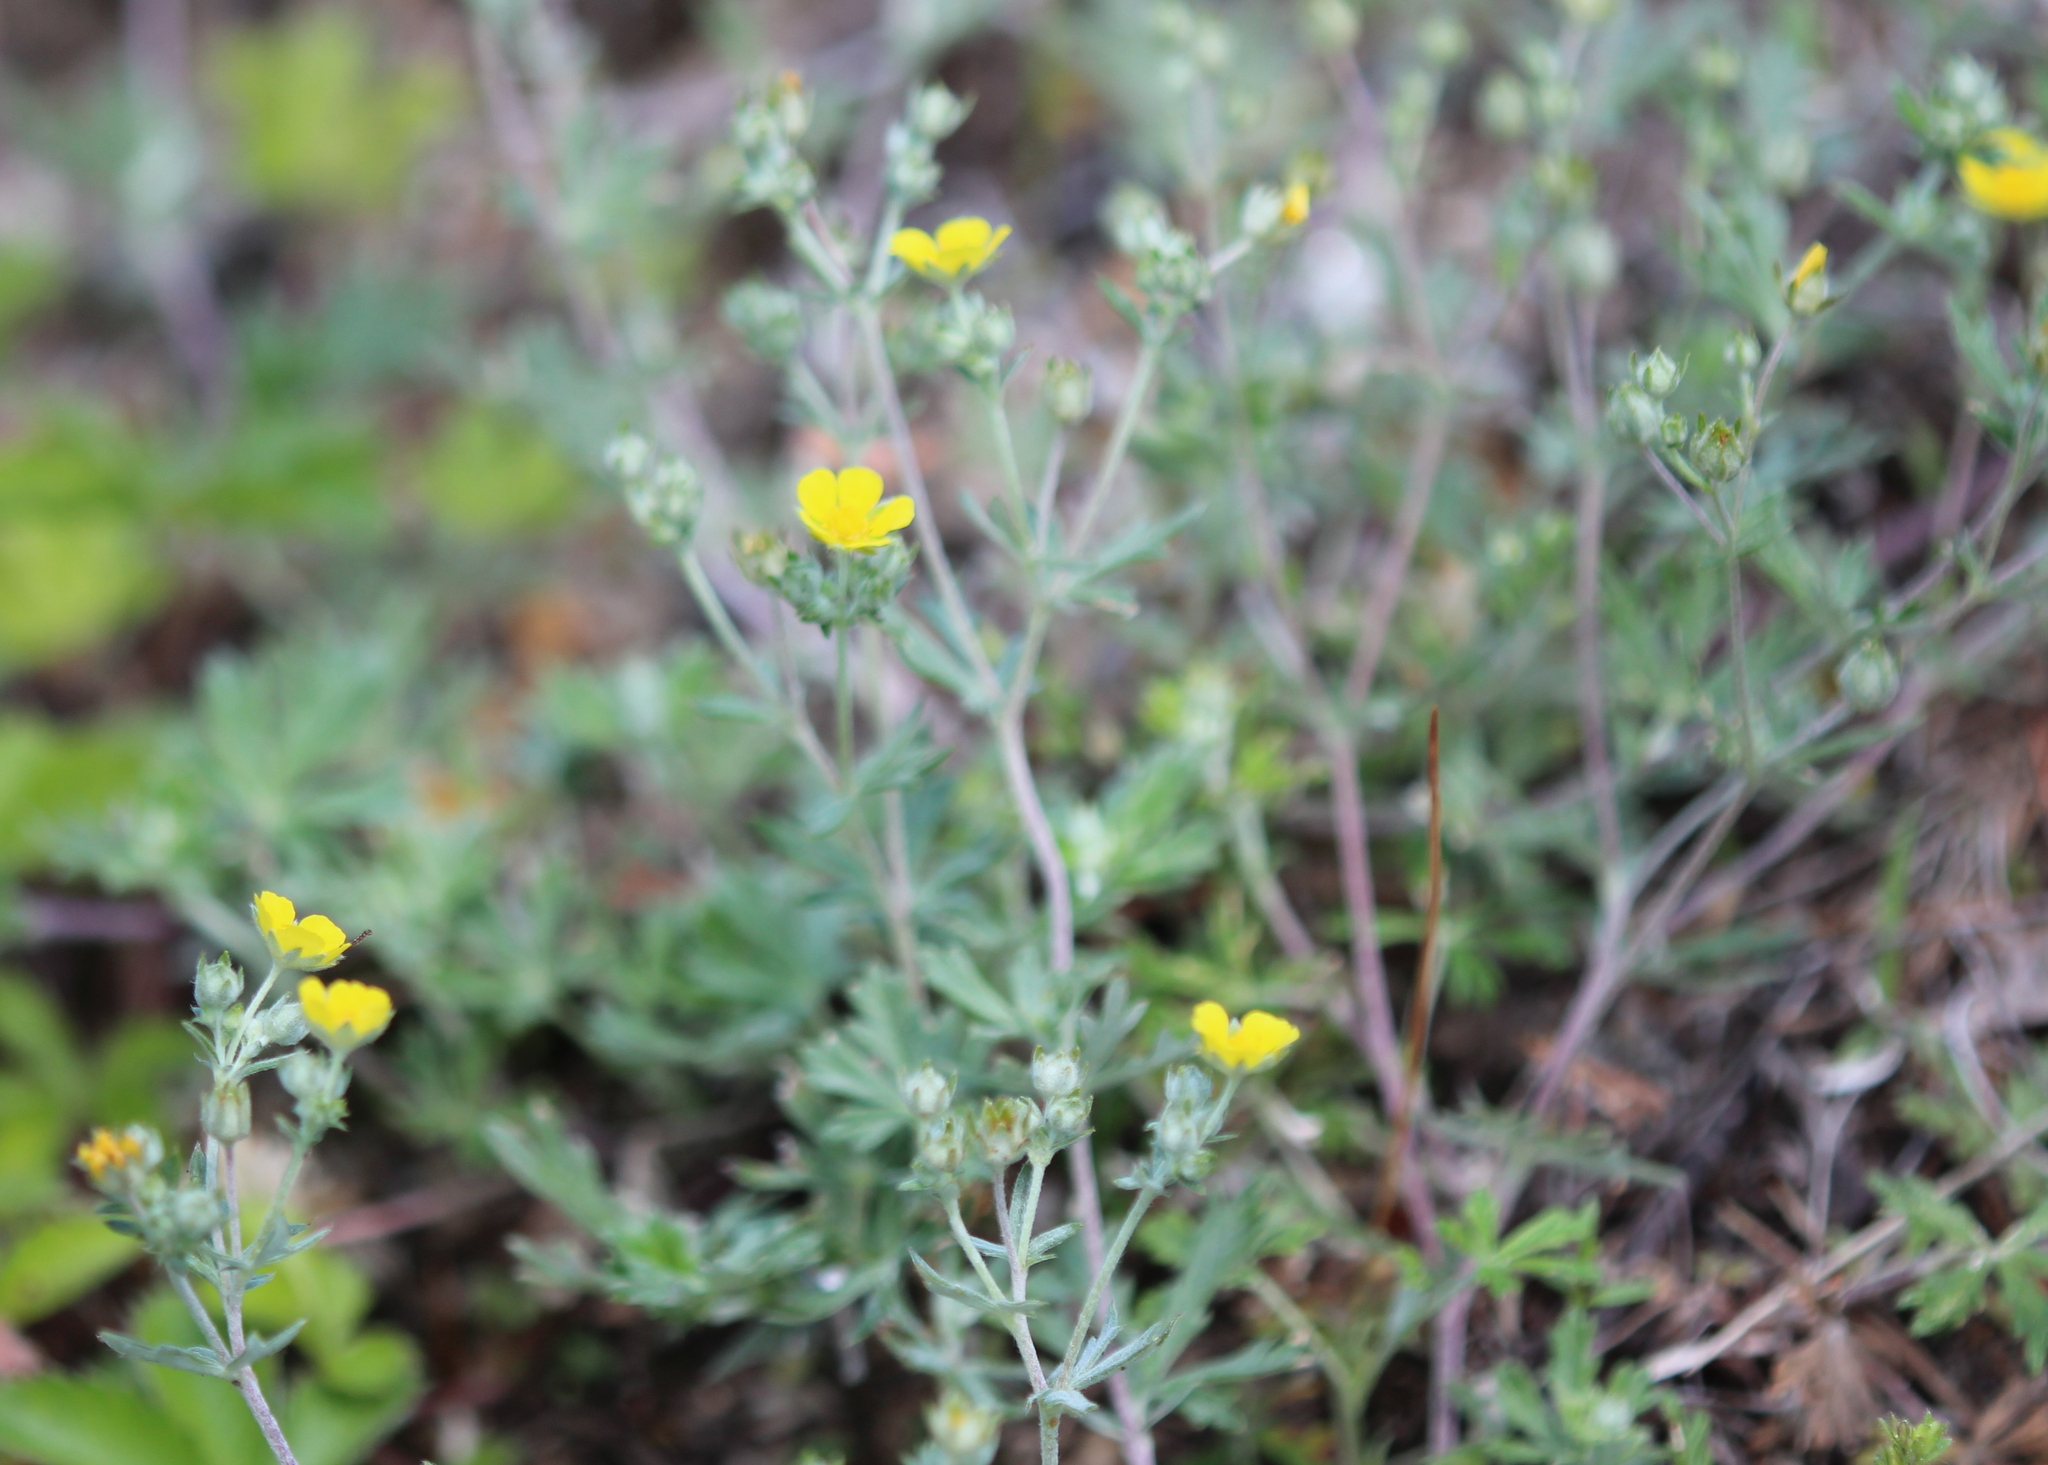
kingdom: Plantae
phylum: Tracheophyta
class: Magnoliopsida
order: Rosales
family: Rosaceae
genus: Potentilla
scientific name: Potentilla argentea
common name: Hoary cinquefoil
